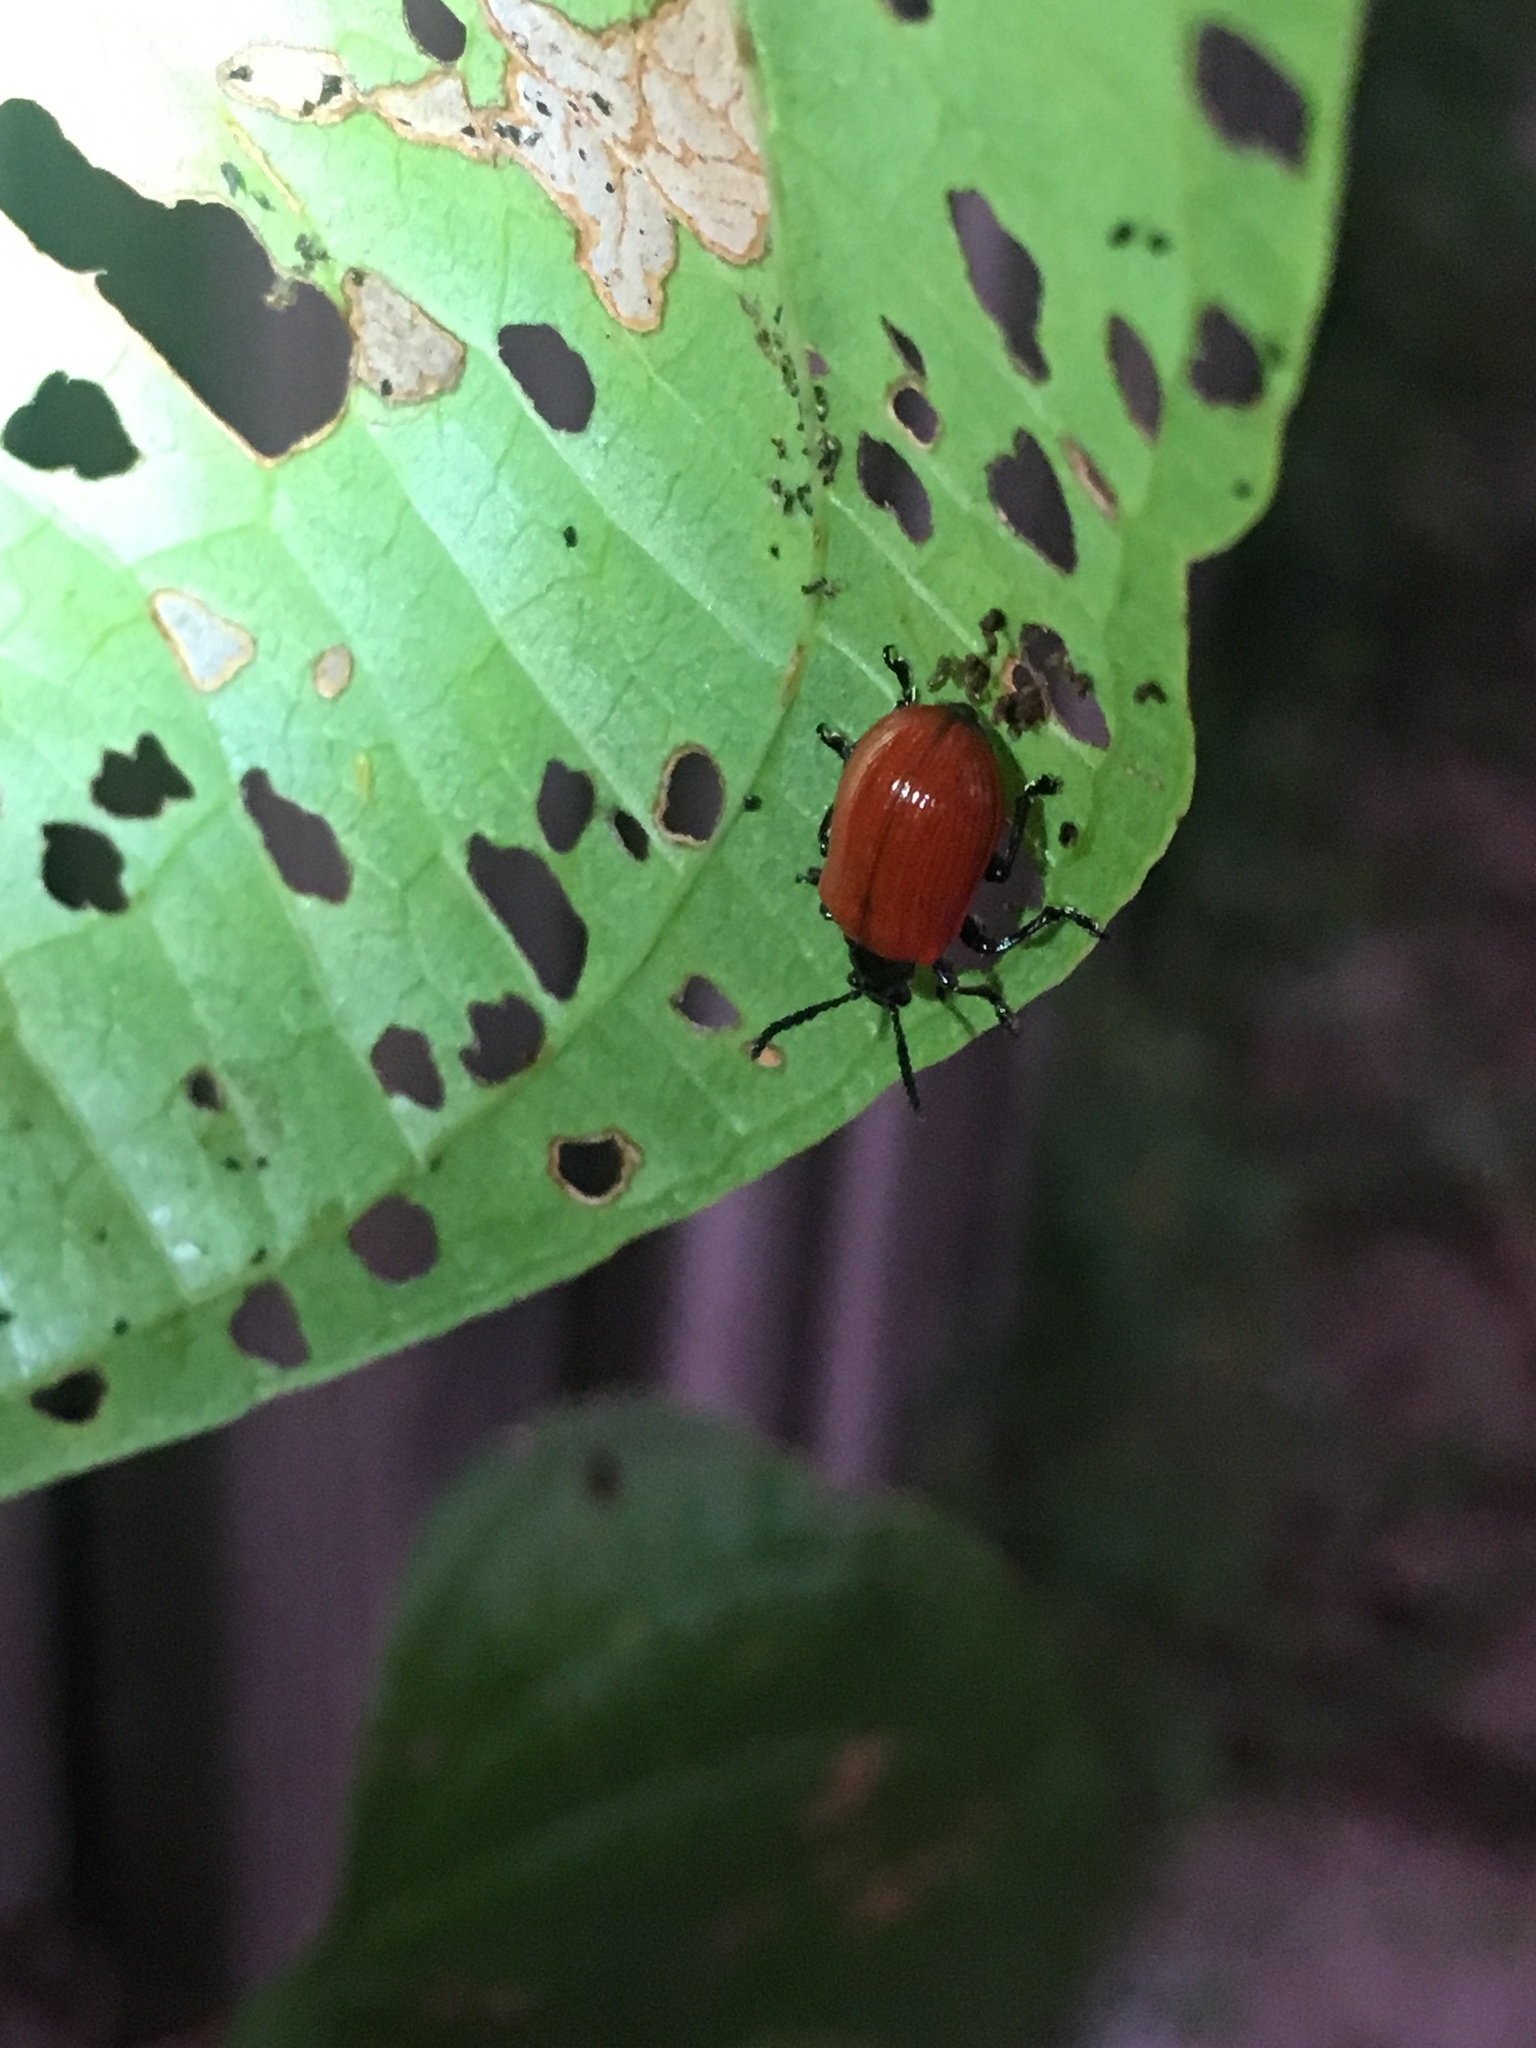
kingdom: Animalia
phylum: Arthropoda
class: Insecta
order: Coleoptera
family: Chrysomelidae
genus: Lilioceris
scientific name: Lilioceris cheni
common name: Leaf beetle
